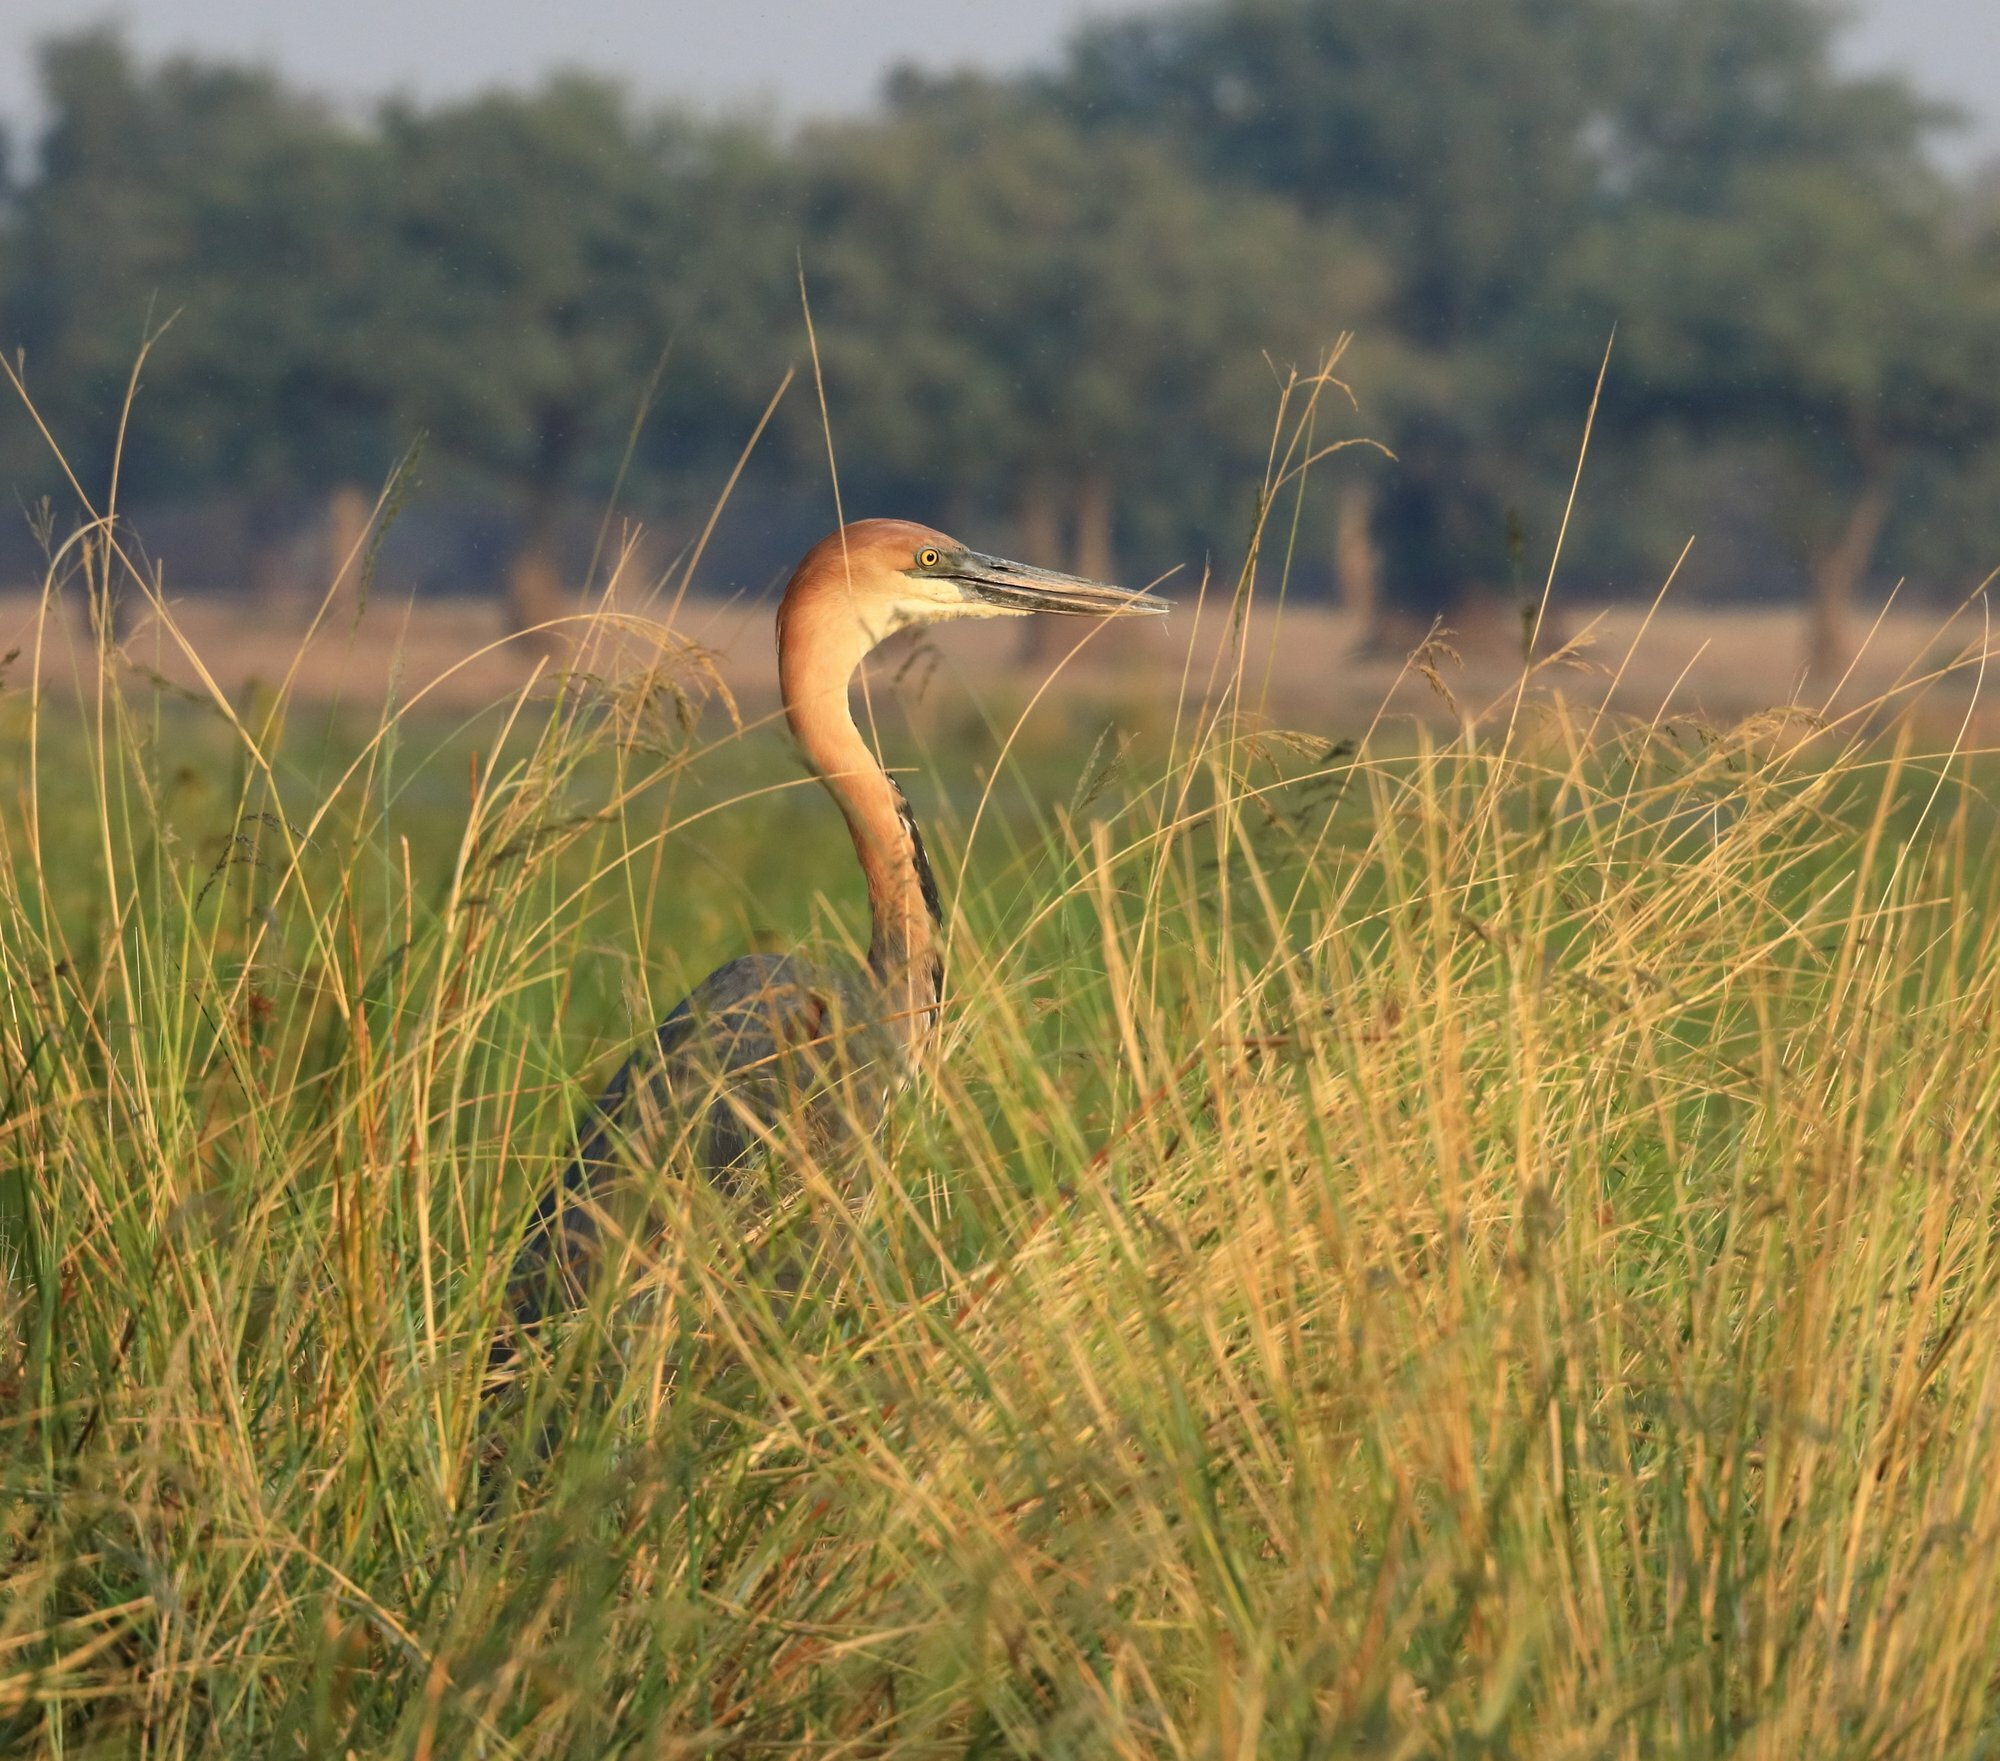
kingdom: Animalia
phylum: Chordata
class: Aves
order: Pelecaniformes
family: Ardeidae
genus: Ardea
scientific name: Ardea goliath
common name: Goliath heron
